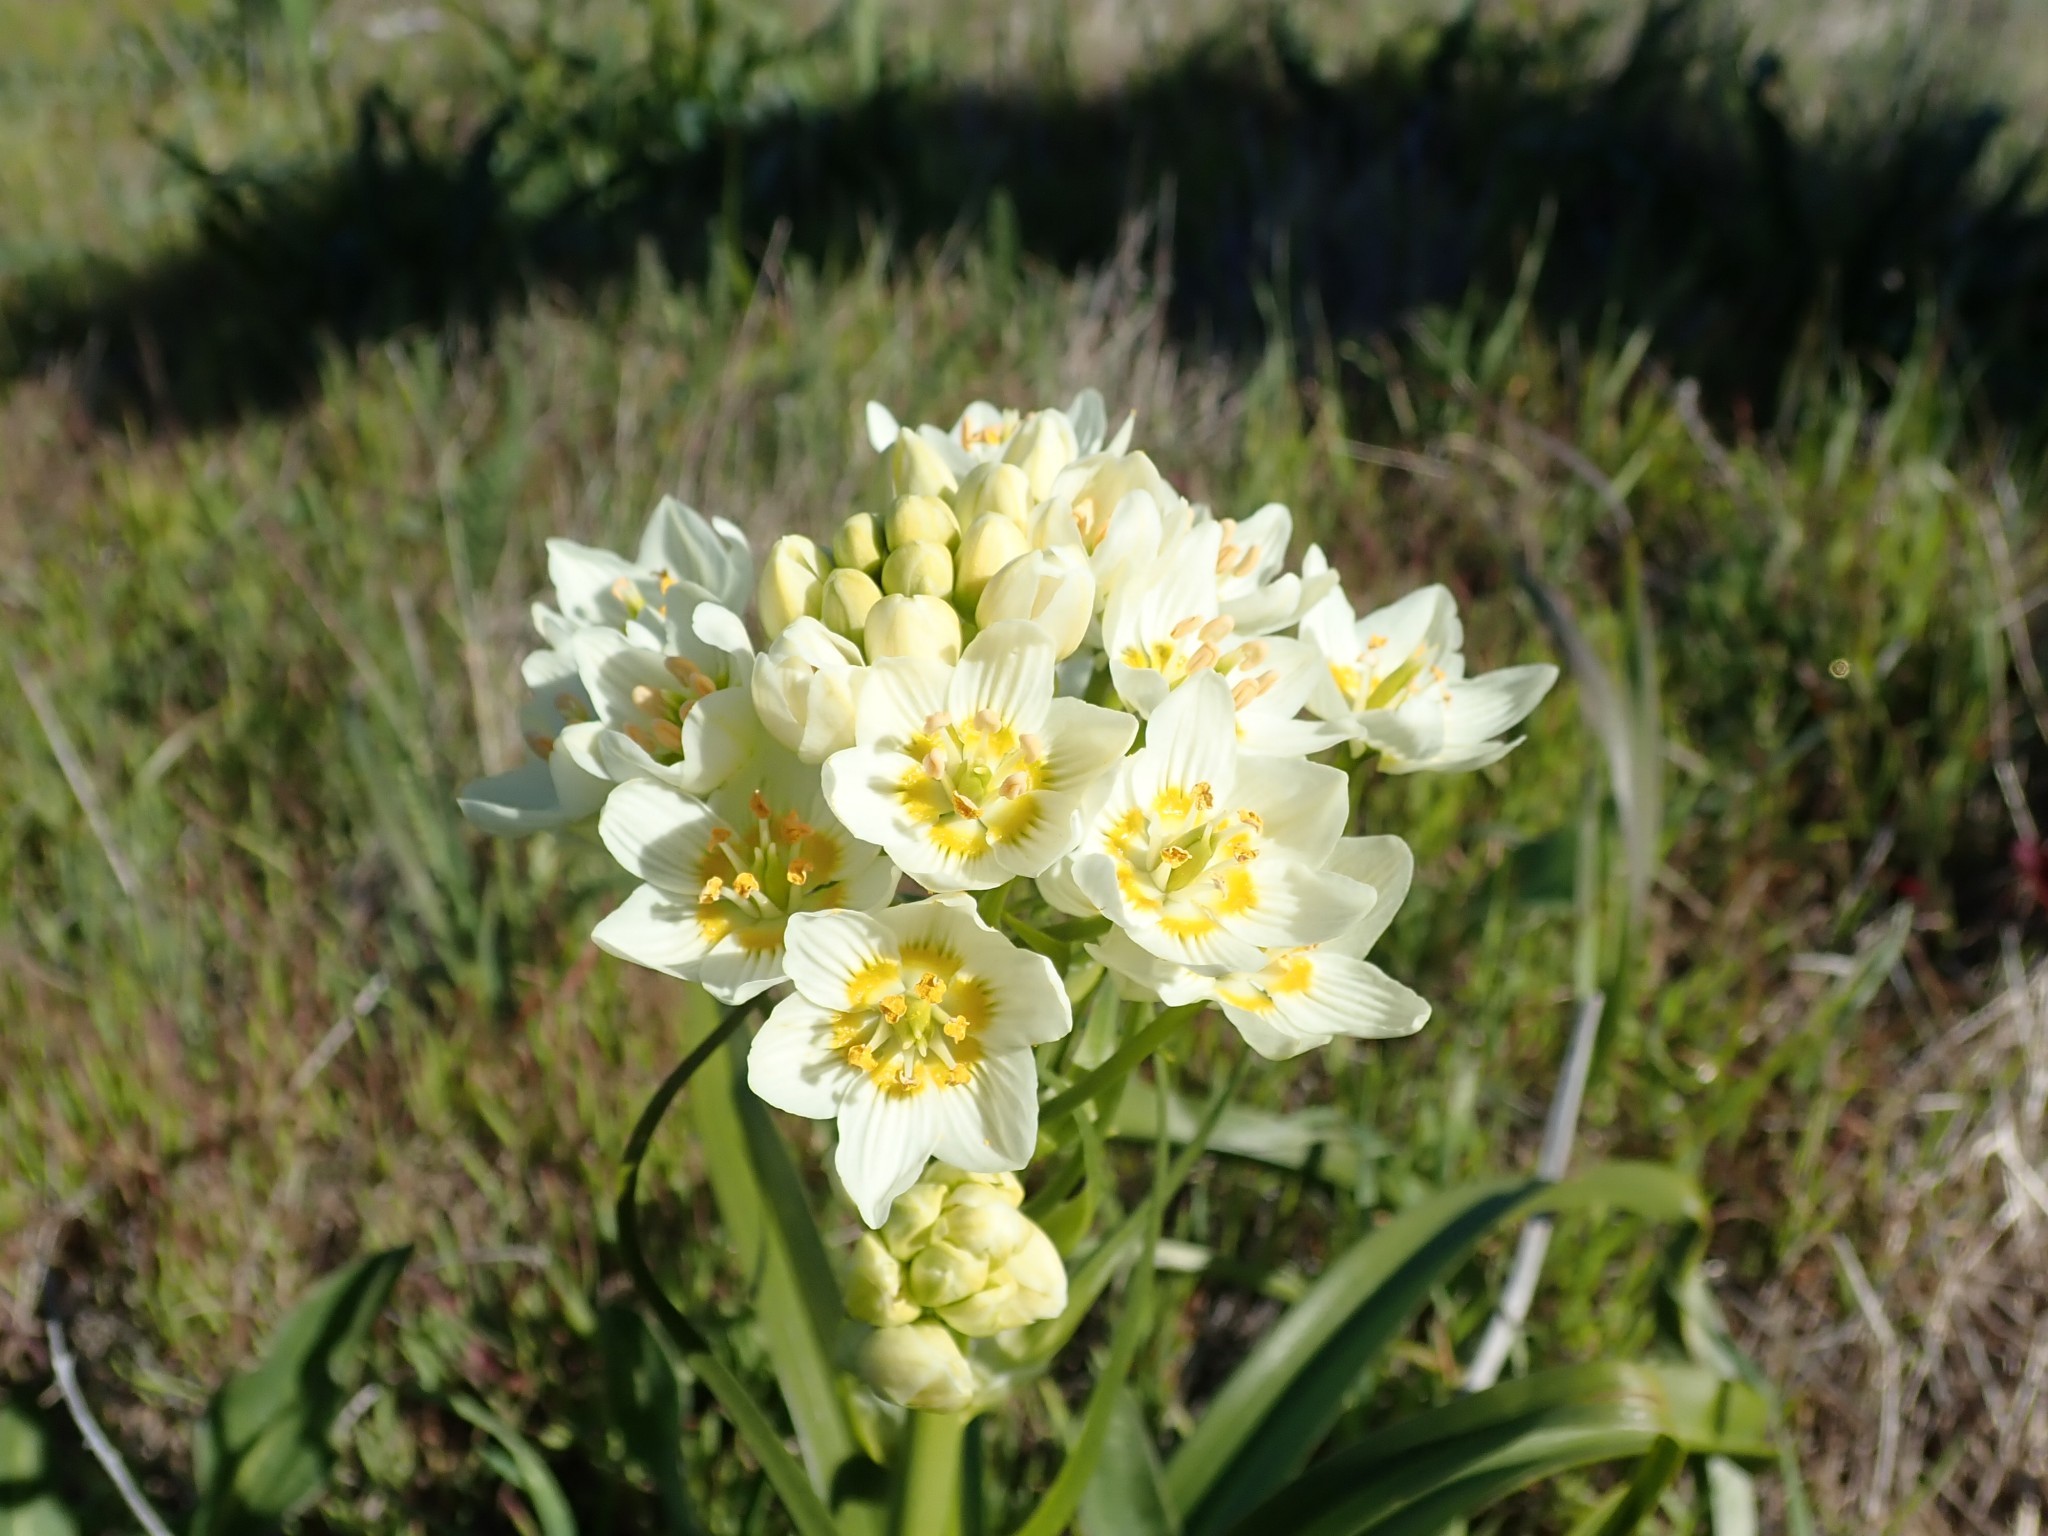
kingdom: Plantae
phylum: Tracheophyta
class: Liliopsida
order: Liliales
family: Melanthiaceae
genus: Toxicoscordion
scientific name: Toxicoscordion fremontii
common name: Fremont's death camas
